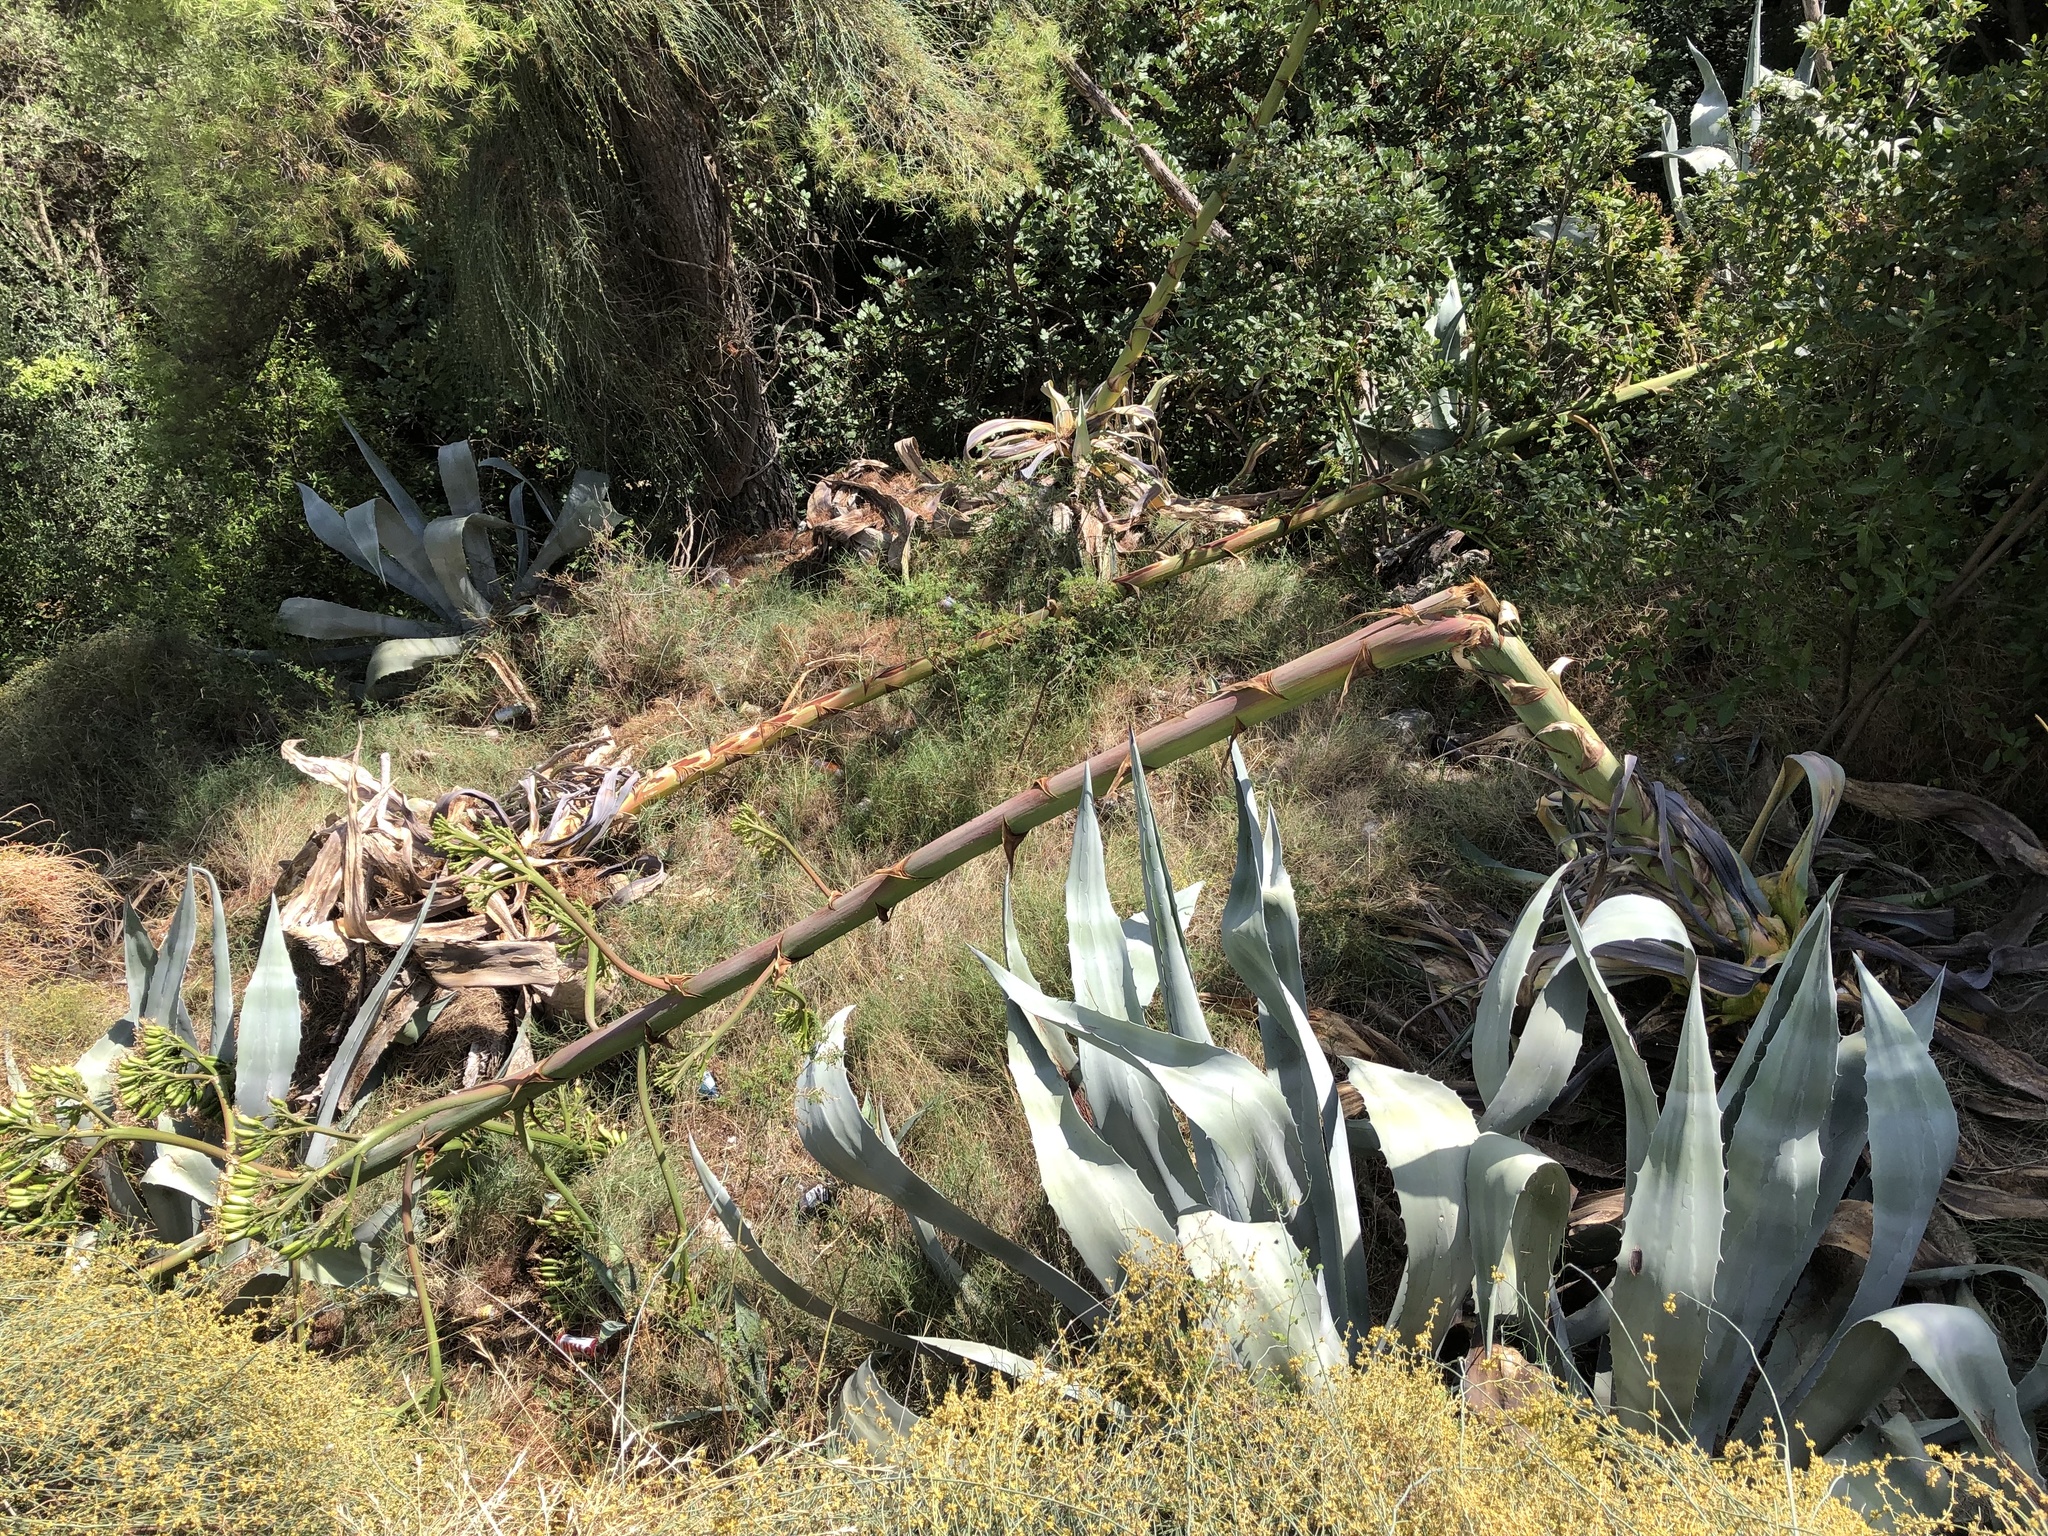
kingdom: Plantae
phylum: Tracheophyta
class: Liliopsida
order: Asparagales
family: Asparagaceae
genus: Agave
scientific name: Agave americana
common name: Centuryplant
